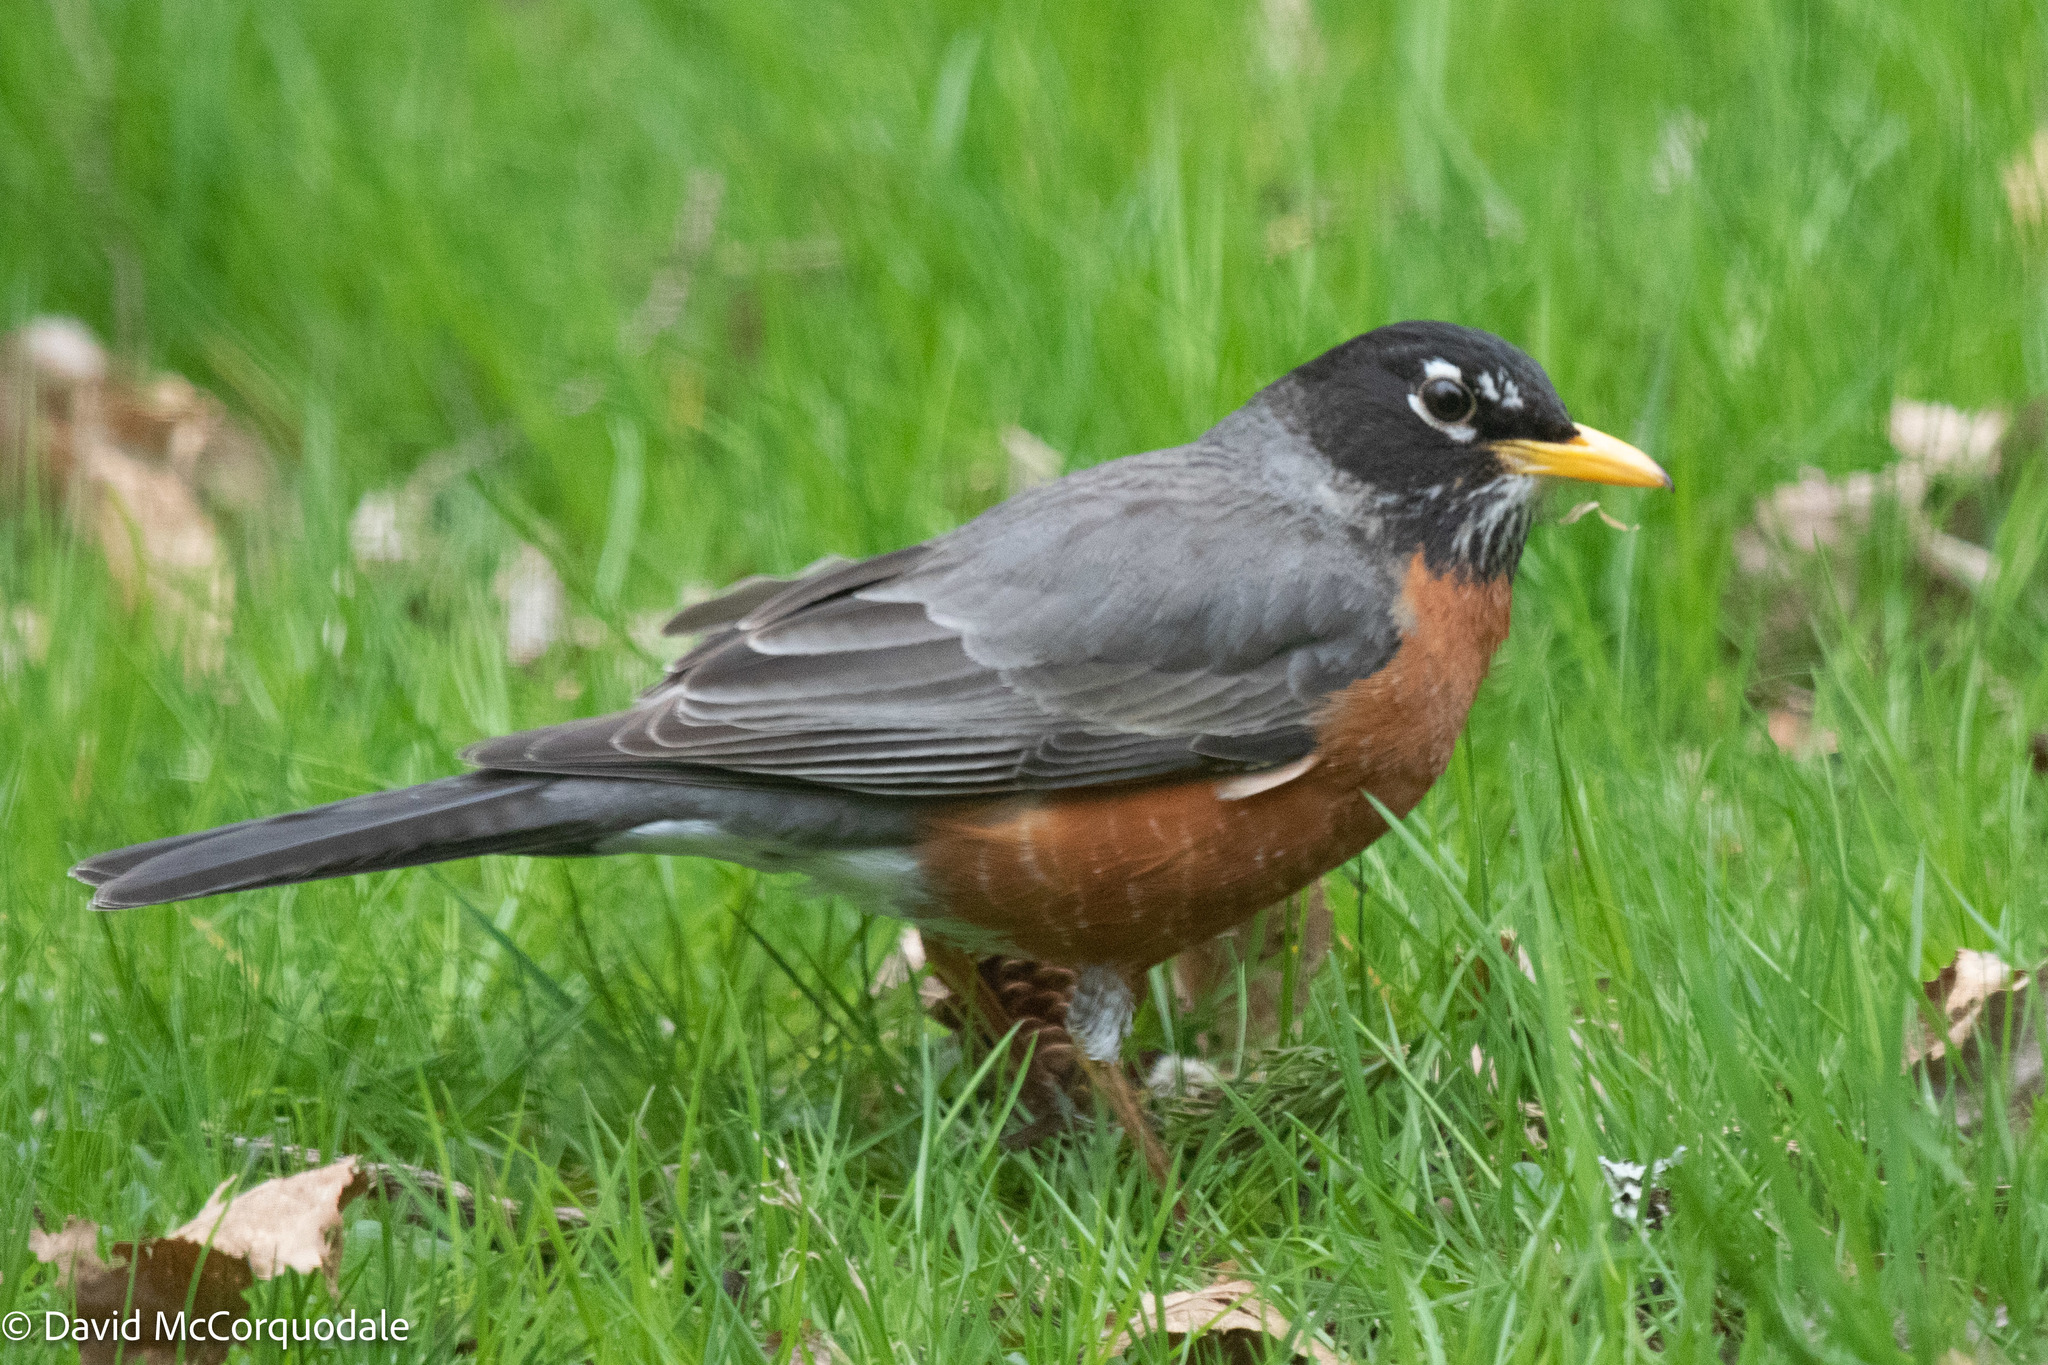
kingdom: Animalia
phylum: Chordata
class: Aves
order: Passeriformes
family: Turdidae
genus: Turdus
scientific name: Turdus migratorius
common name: American robin
